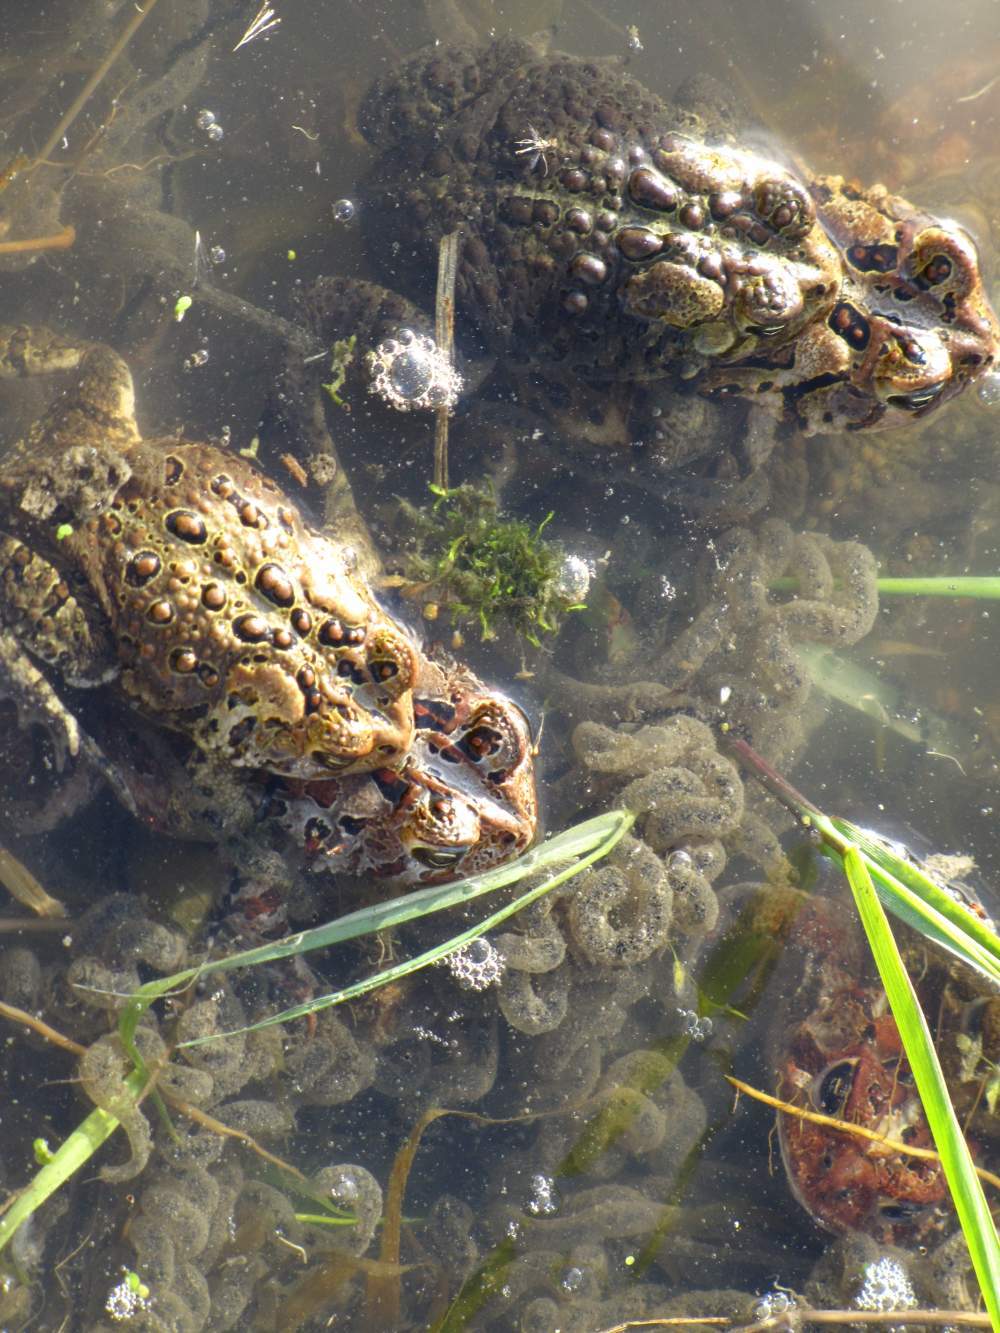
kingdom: Animalia
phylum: Chordata
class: Amphibia
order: Anura
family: Bufonidae
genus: Anaxyrus
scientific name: Anaxyrus americanus
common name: American toad
